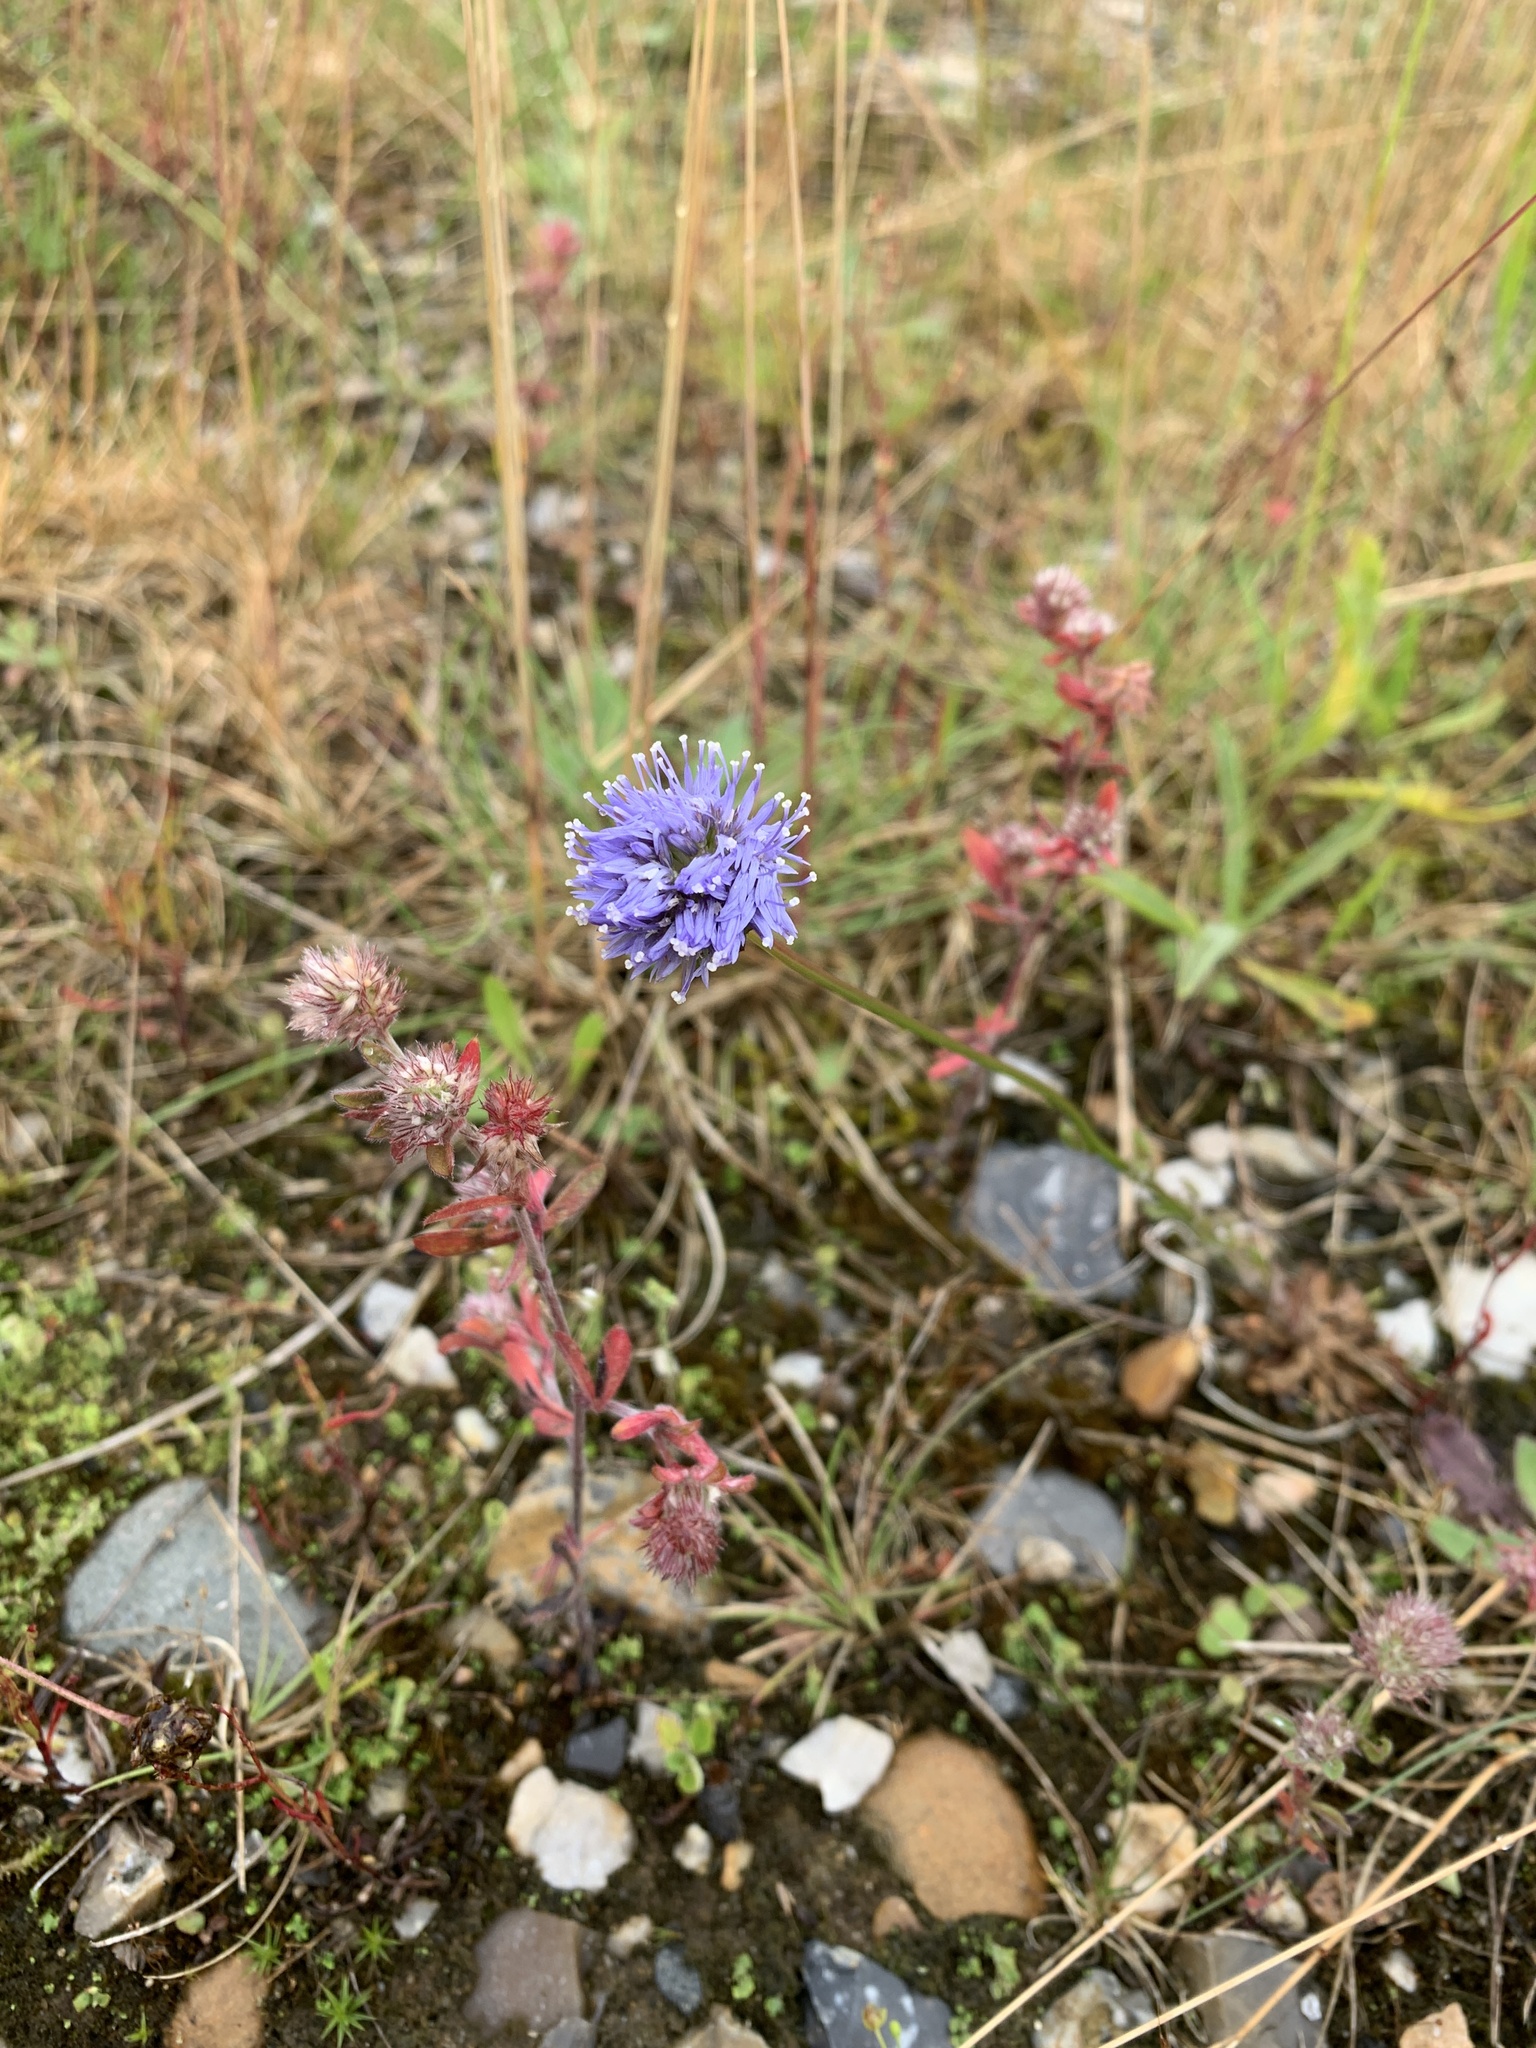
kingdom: Plantae
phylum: Tracheophyta
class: Magnoliopsida
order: Asterales
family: Campanulaceae
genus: Jasione
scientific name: Jasione montana
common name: Sheep's-bit
